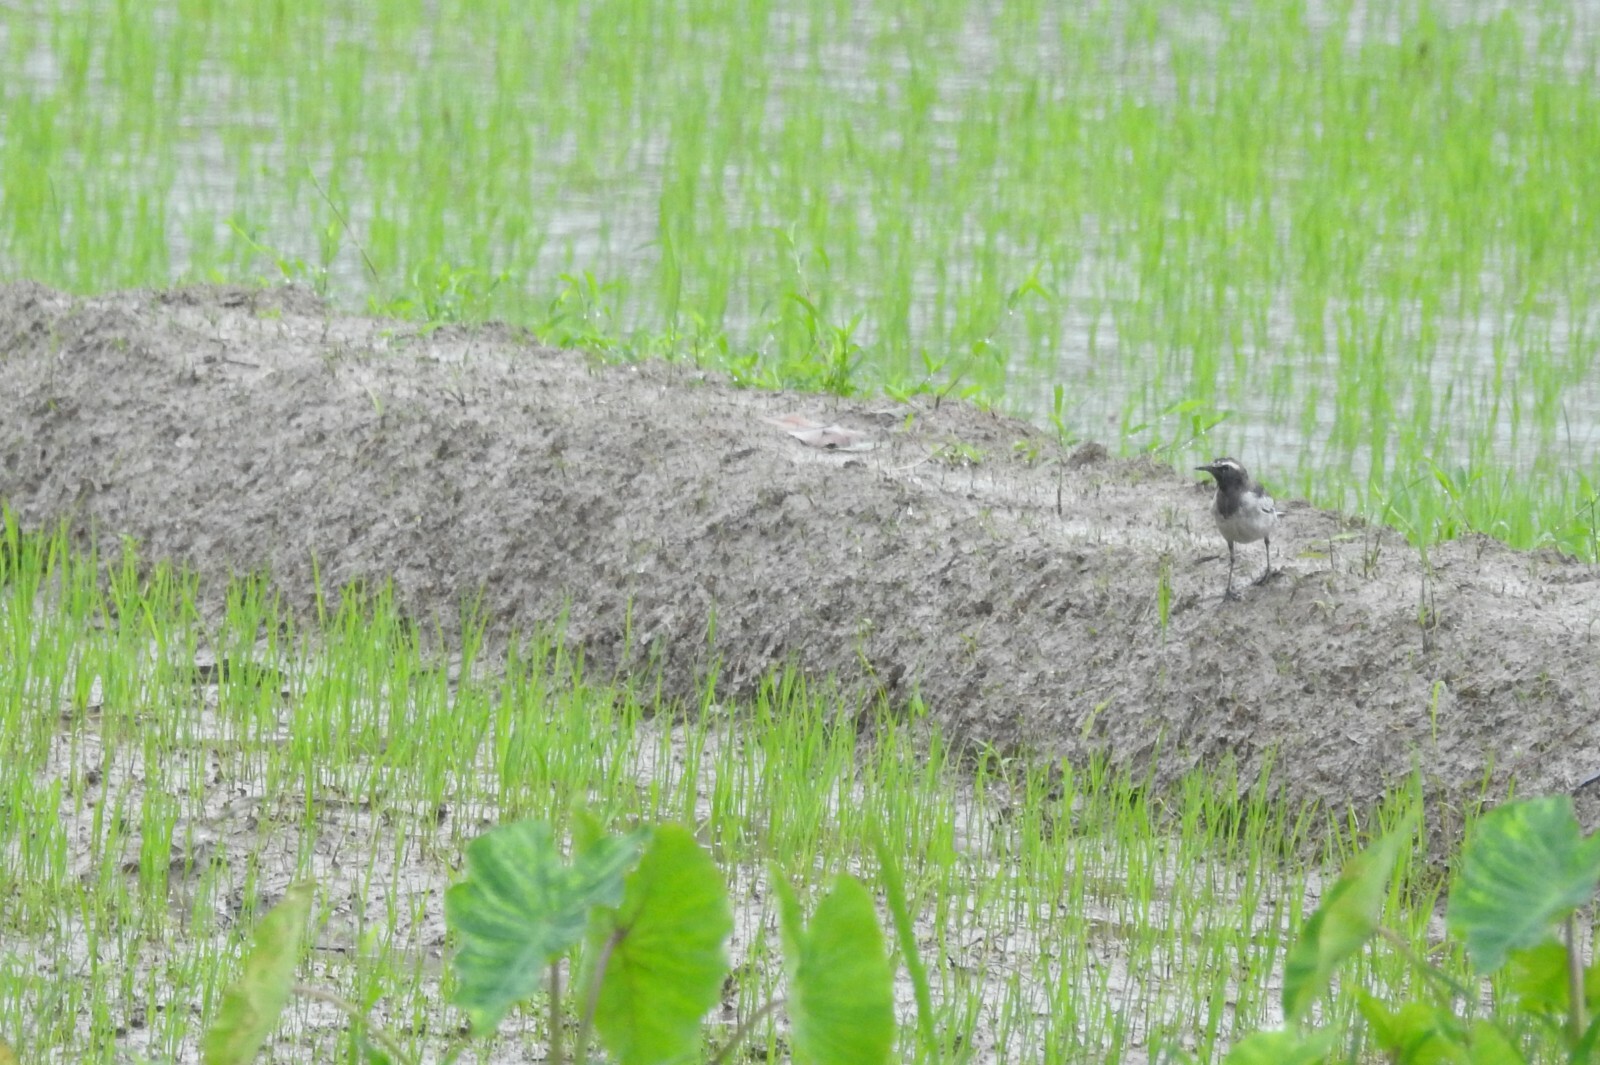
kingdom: Animalia
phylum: Chordata
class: Aves
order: Passeriformes
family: Motacillidae
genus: Motacilla
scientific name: Motacilla maderaspatensis
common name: White-browed wagtail
